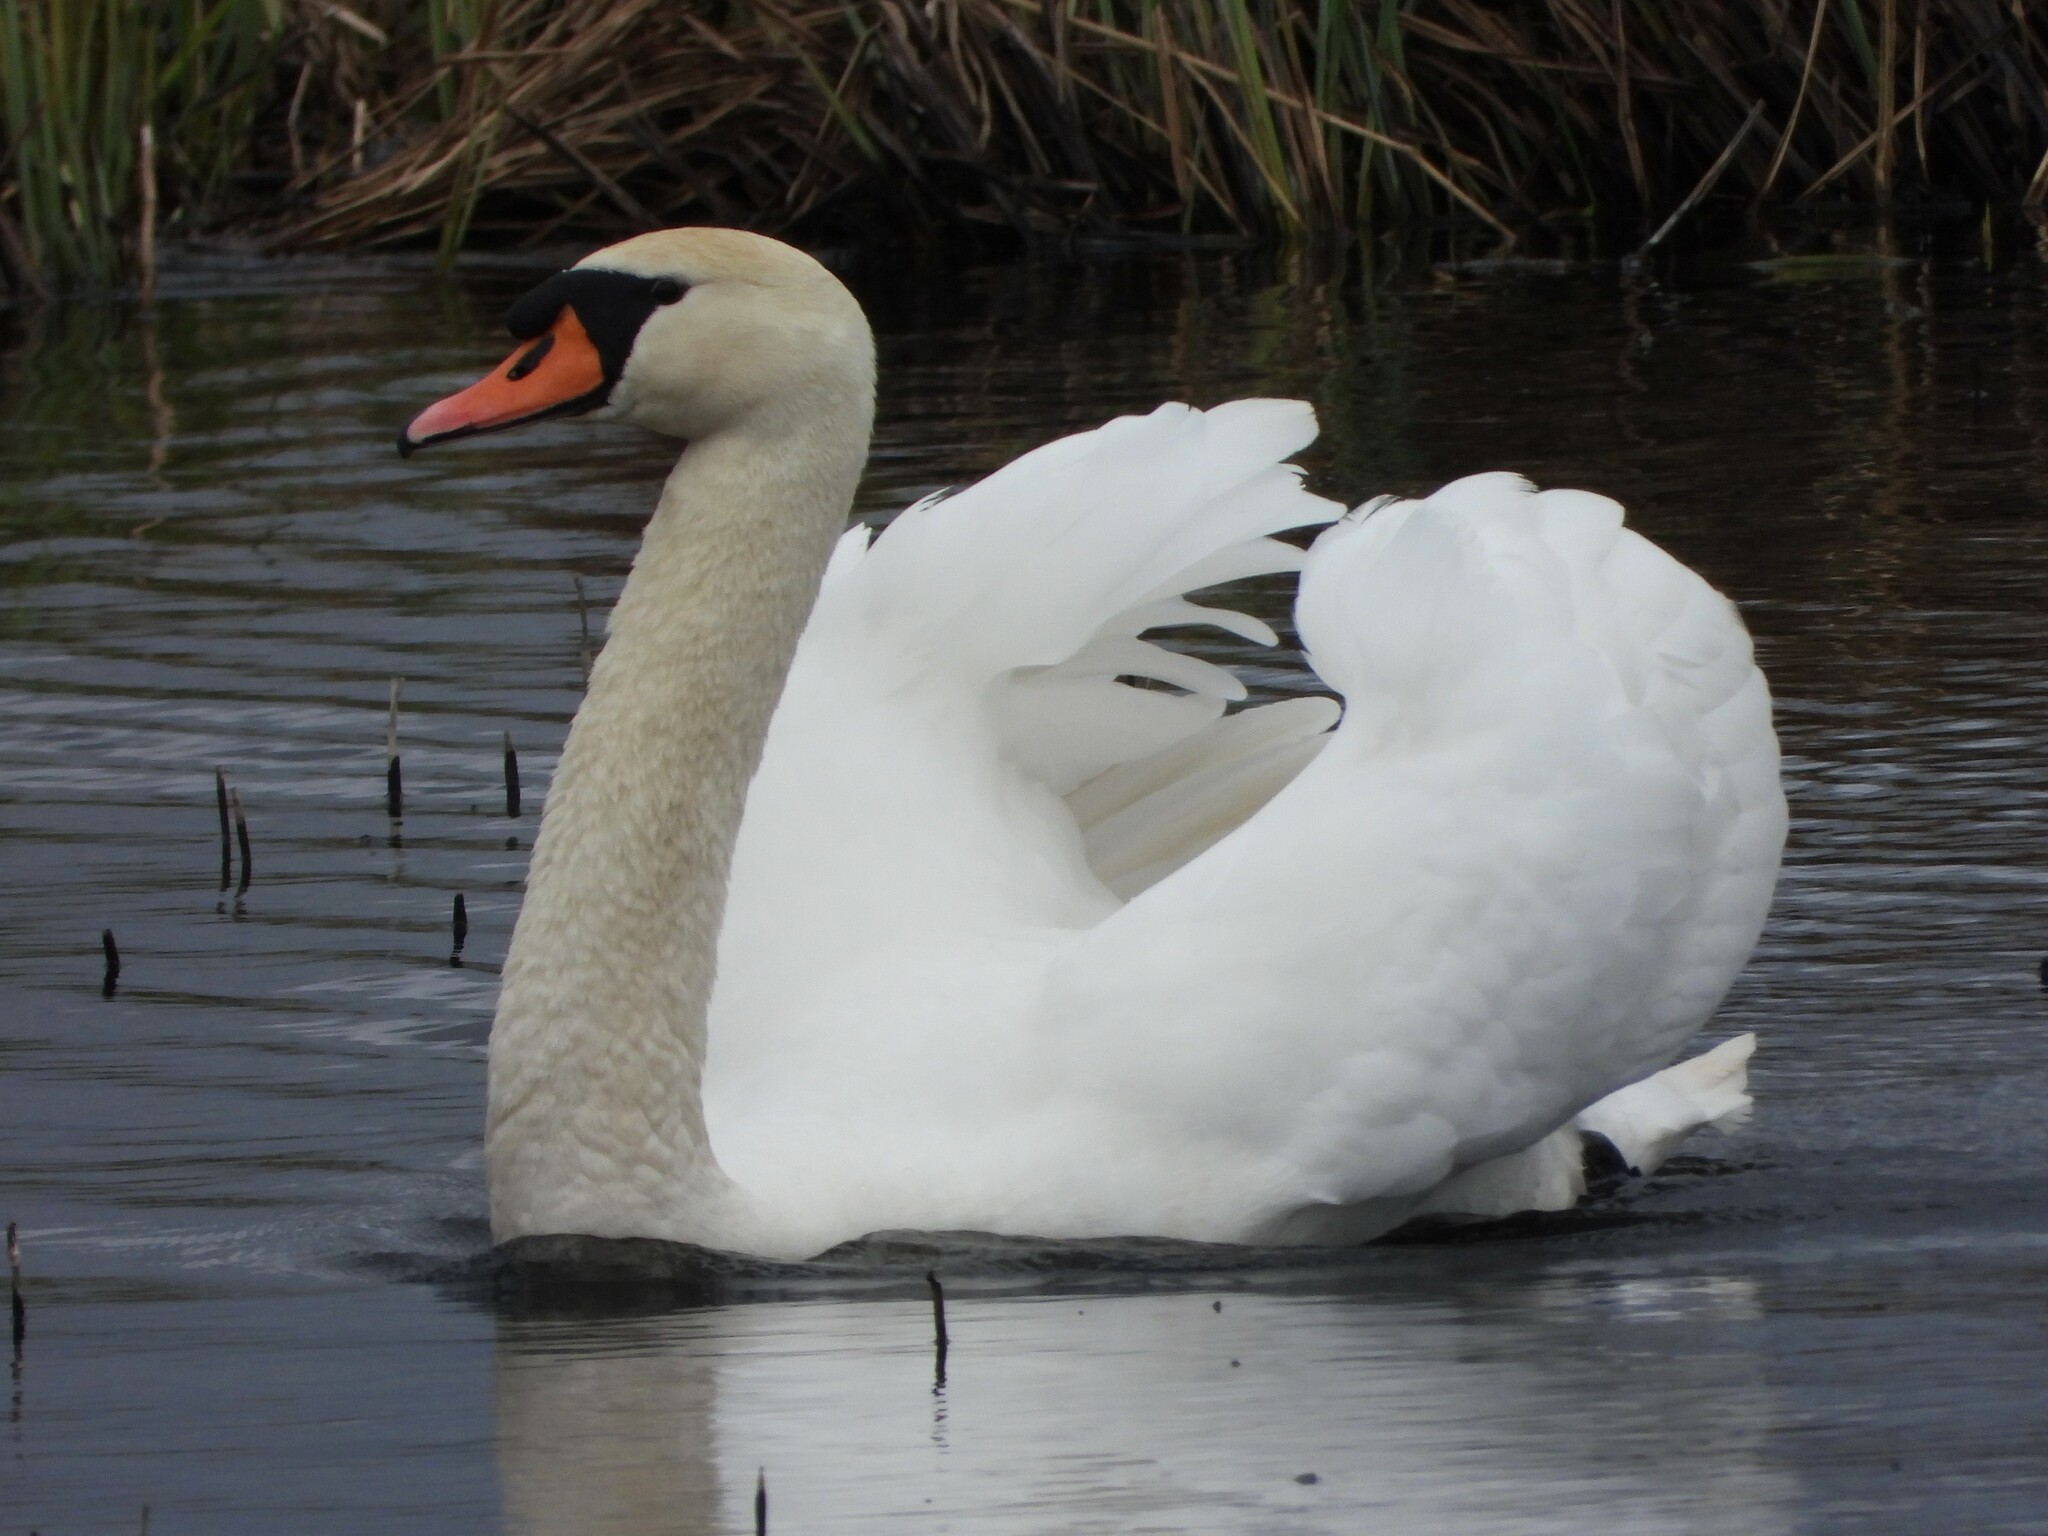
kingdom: Animalia
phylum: Chordata
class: Aves
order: Anseriformes
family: Anatidae
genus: Cygnus
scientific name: Cygnus olor
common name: Mute swan
